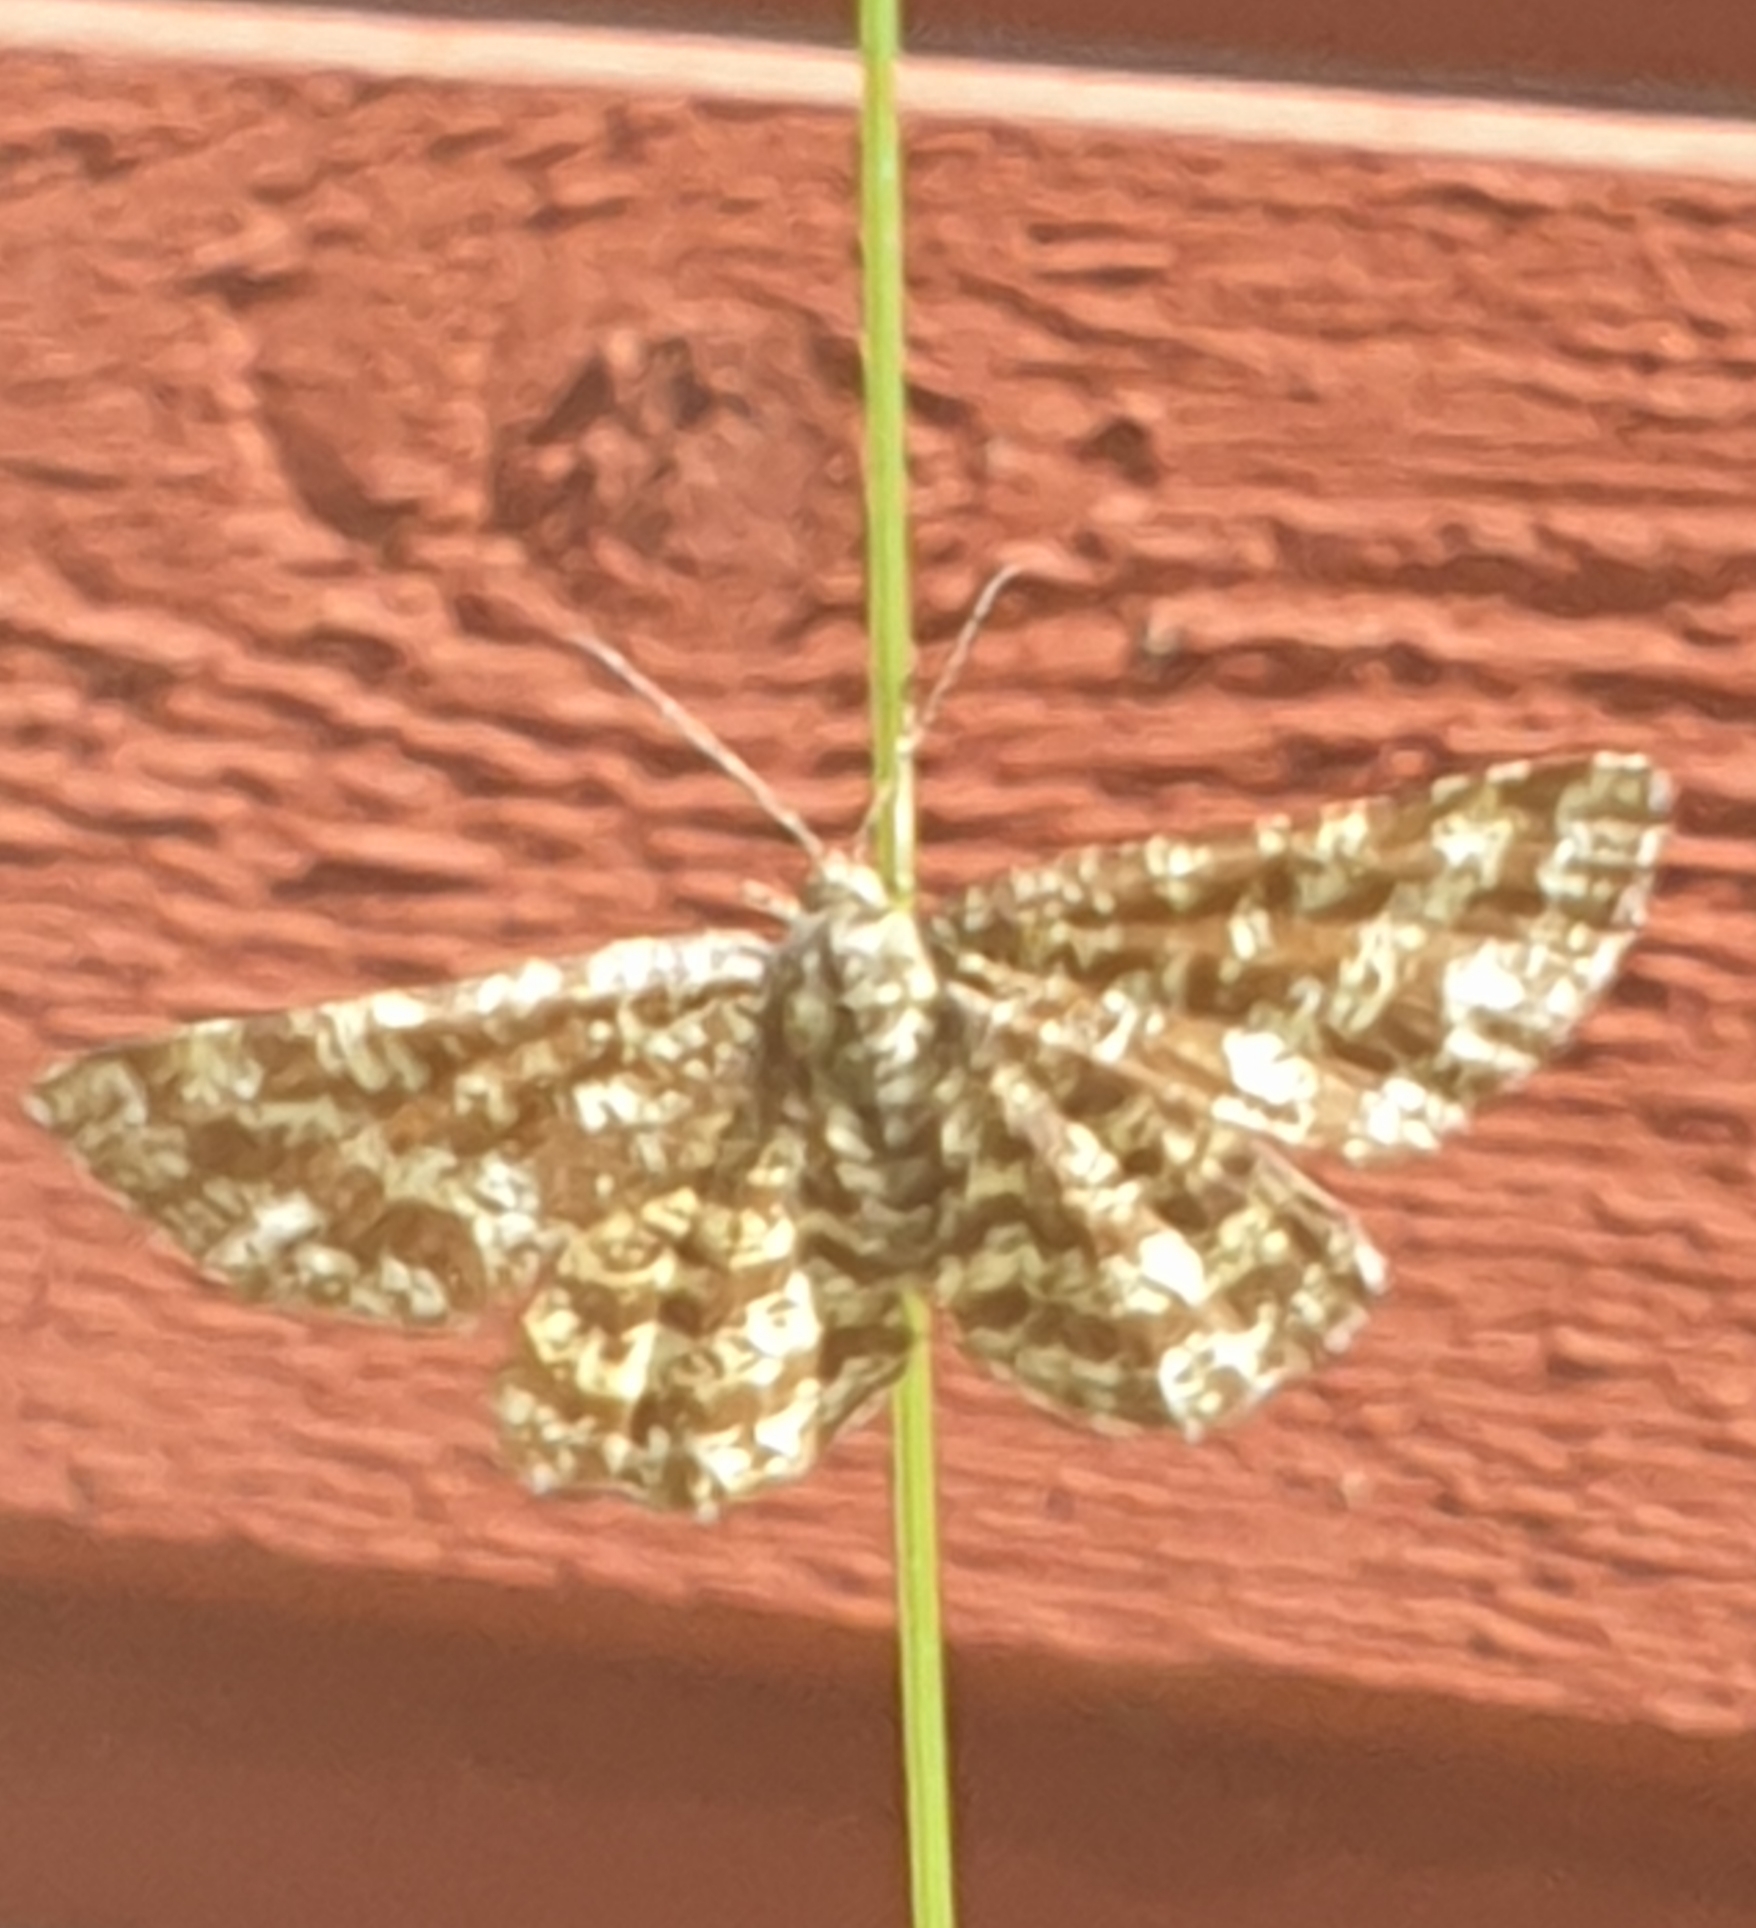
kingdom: Animalia
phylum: Arthropoda
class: Insecta
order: Lepidoptera
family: Geometridae
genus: Ematurga
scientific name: Ematurga atomaria
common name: Common heath
